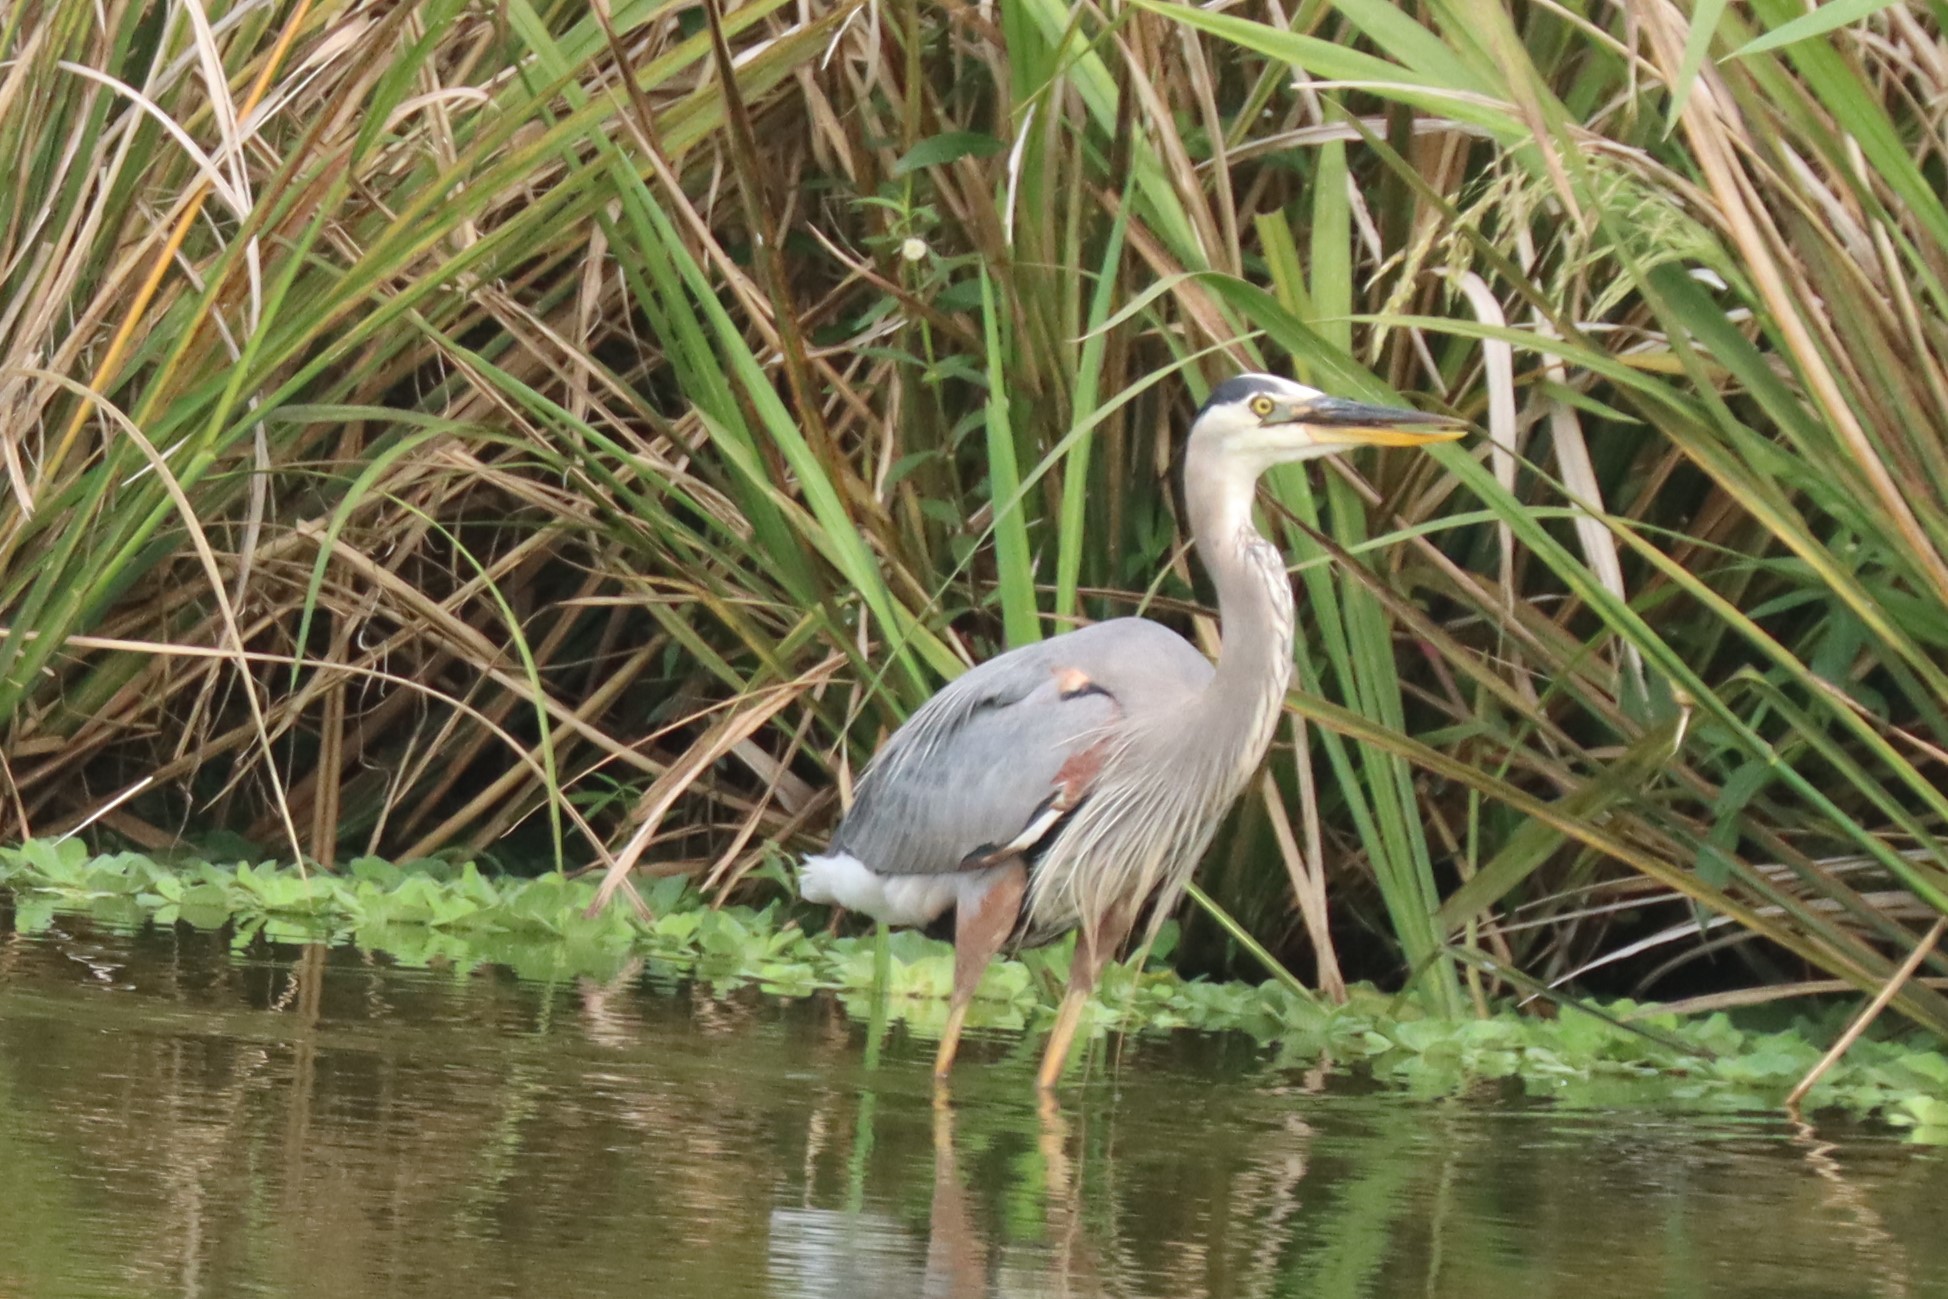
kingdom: Animalia
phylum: Chordata
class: Aves
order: Pelecaniformes
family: Ardeidae
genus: Ardea
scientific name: Ardea herodias
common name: Great blue heron
